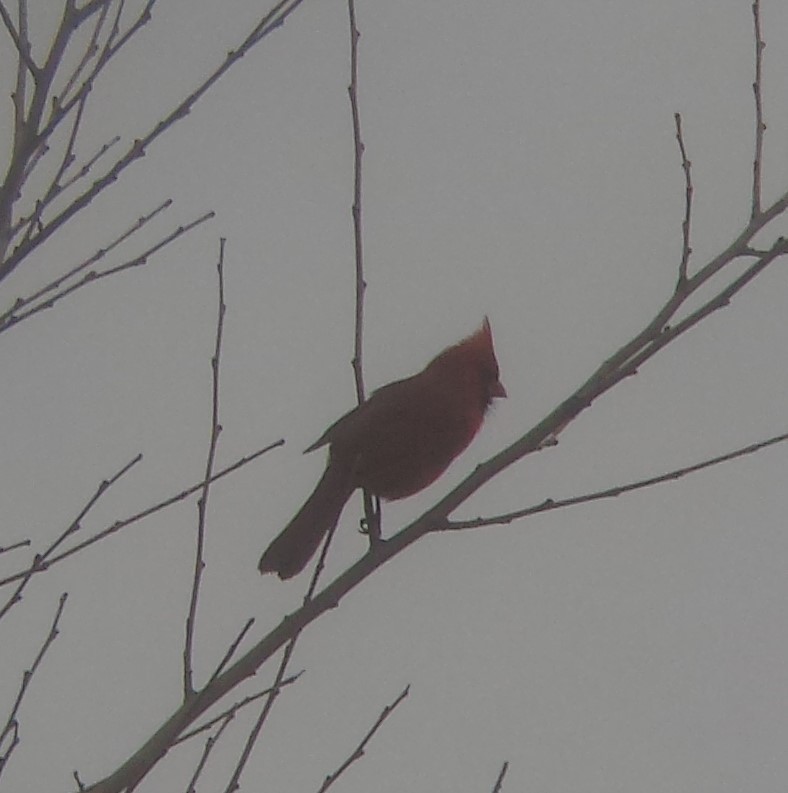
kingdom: Animalia
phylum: Chordata
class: Aves
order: Passeriformes
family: Cardinalidae
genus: Cardinalis
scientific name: Cardinalis cardinalis
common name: Northern cardinal
